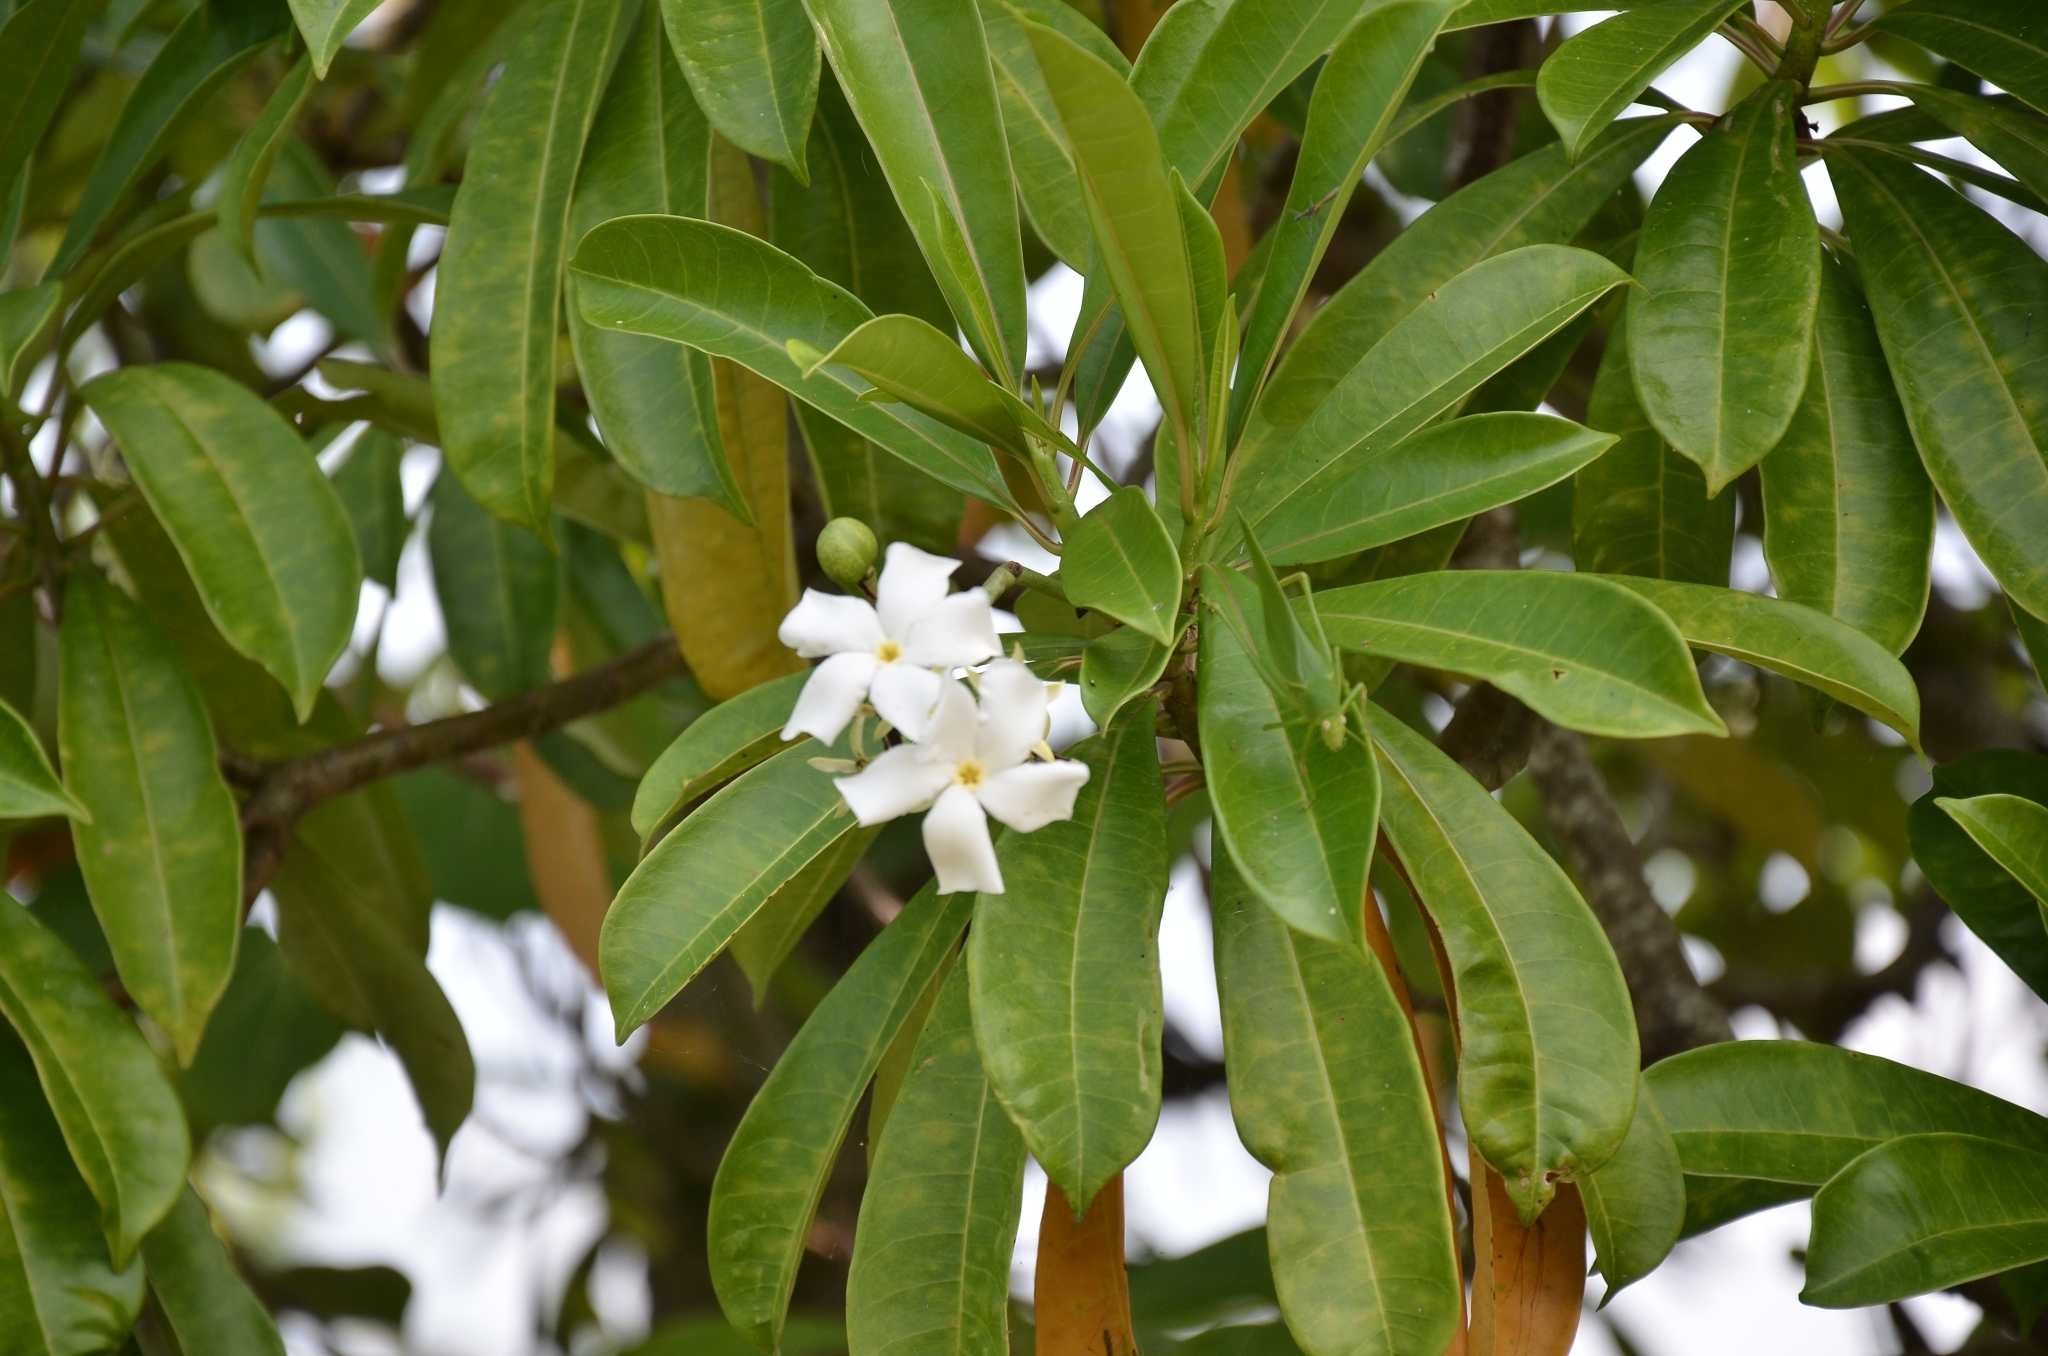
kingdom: Plantae
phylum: Tracheophyta
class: Magnoliopsida
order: Gentianales
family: Apocynaceae
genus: Cerbera
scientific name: Cerbera odollam
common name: Pong-pong
